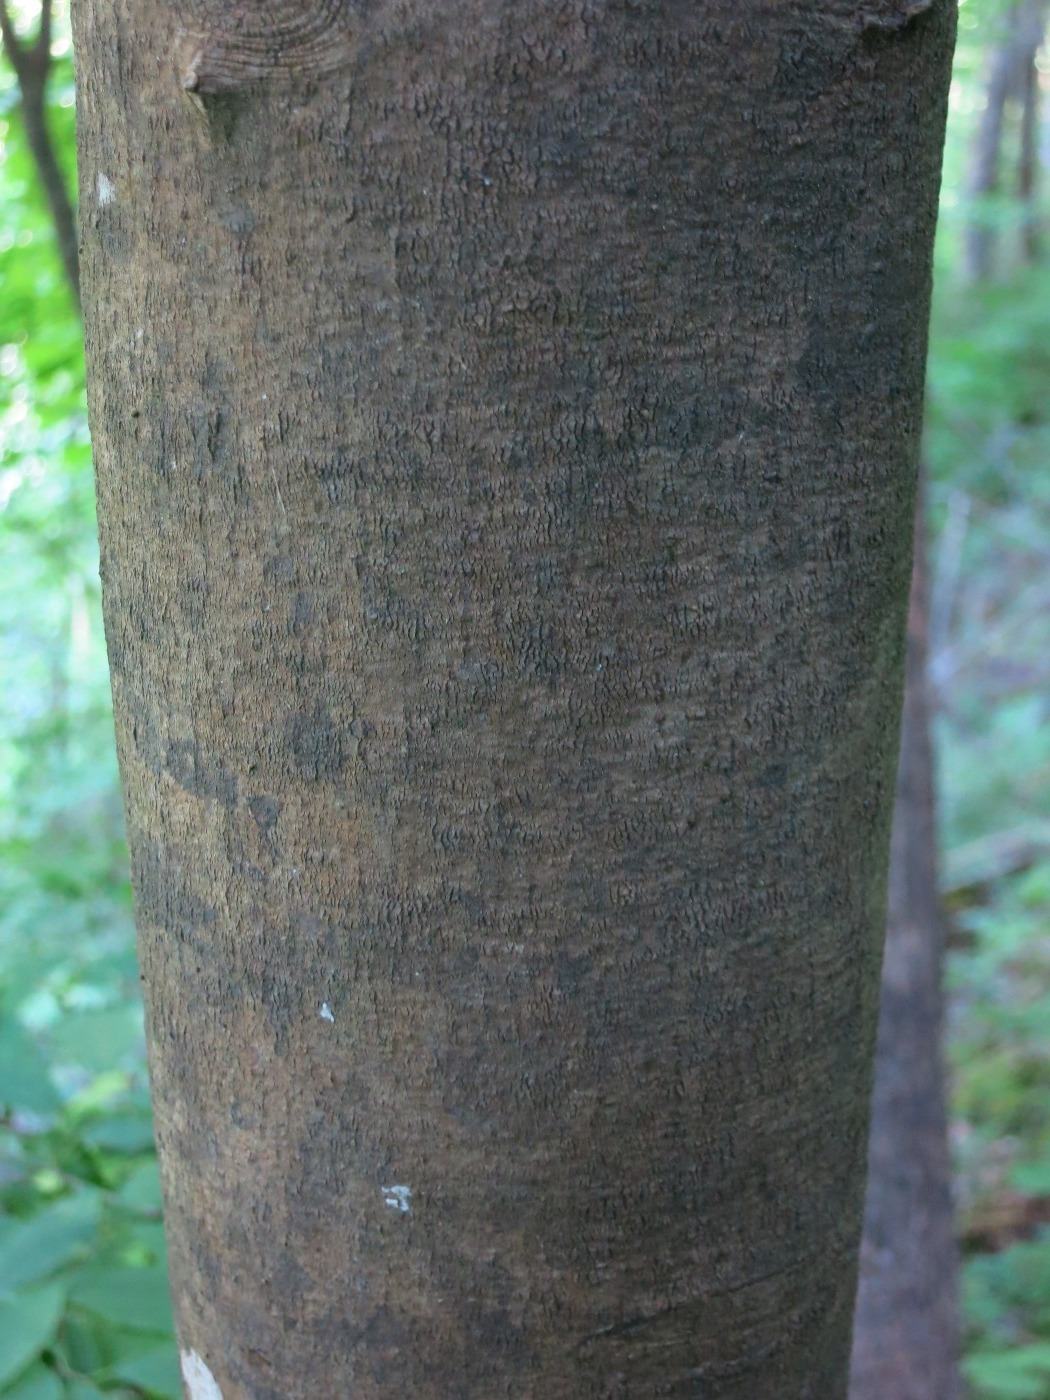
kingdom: Plantae
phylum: Tracheophyta
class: Magnoliopsida
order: Fabales
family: Fabaceae
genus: Cladrastis
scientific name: Cladrastis kentukea
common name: Kentucky yellow-wood
